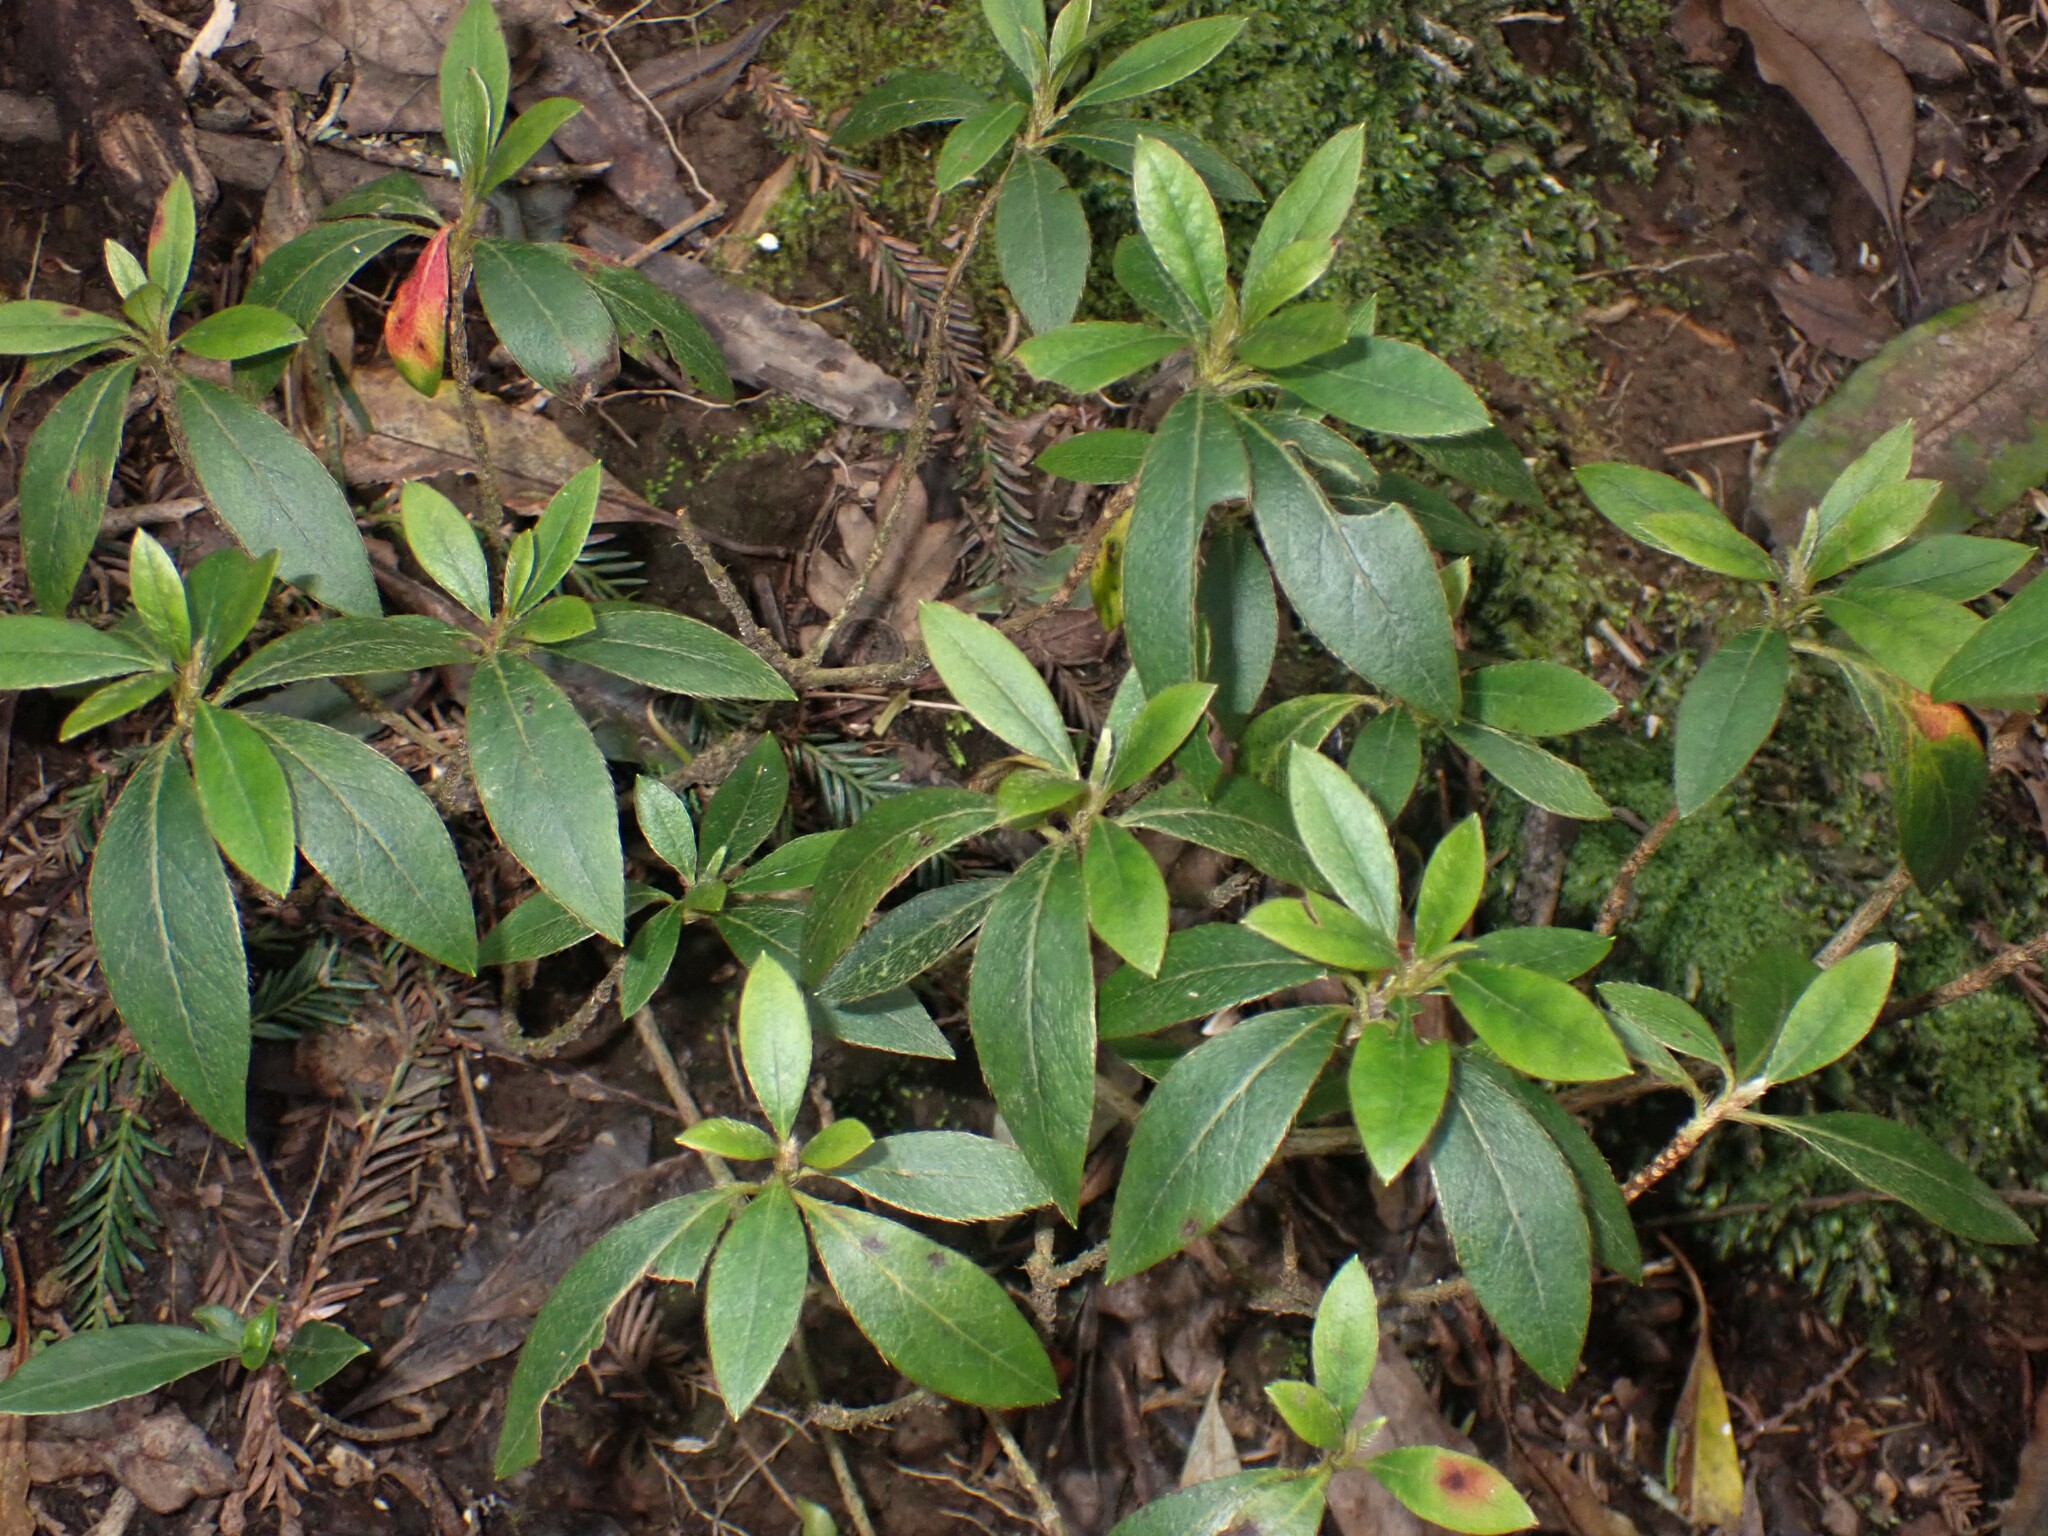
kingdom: Plantae
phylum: Tracheophyta
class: Magnoliopsida
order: Ericales
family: Ericaceae
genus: Rhododendron
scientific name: Rhododendron indicum
